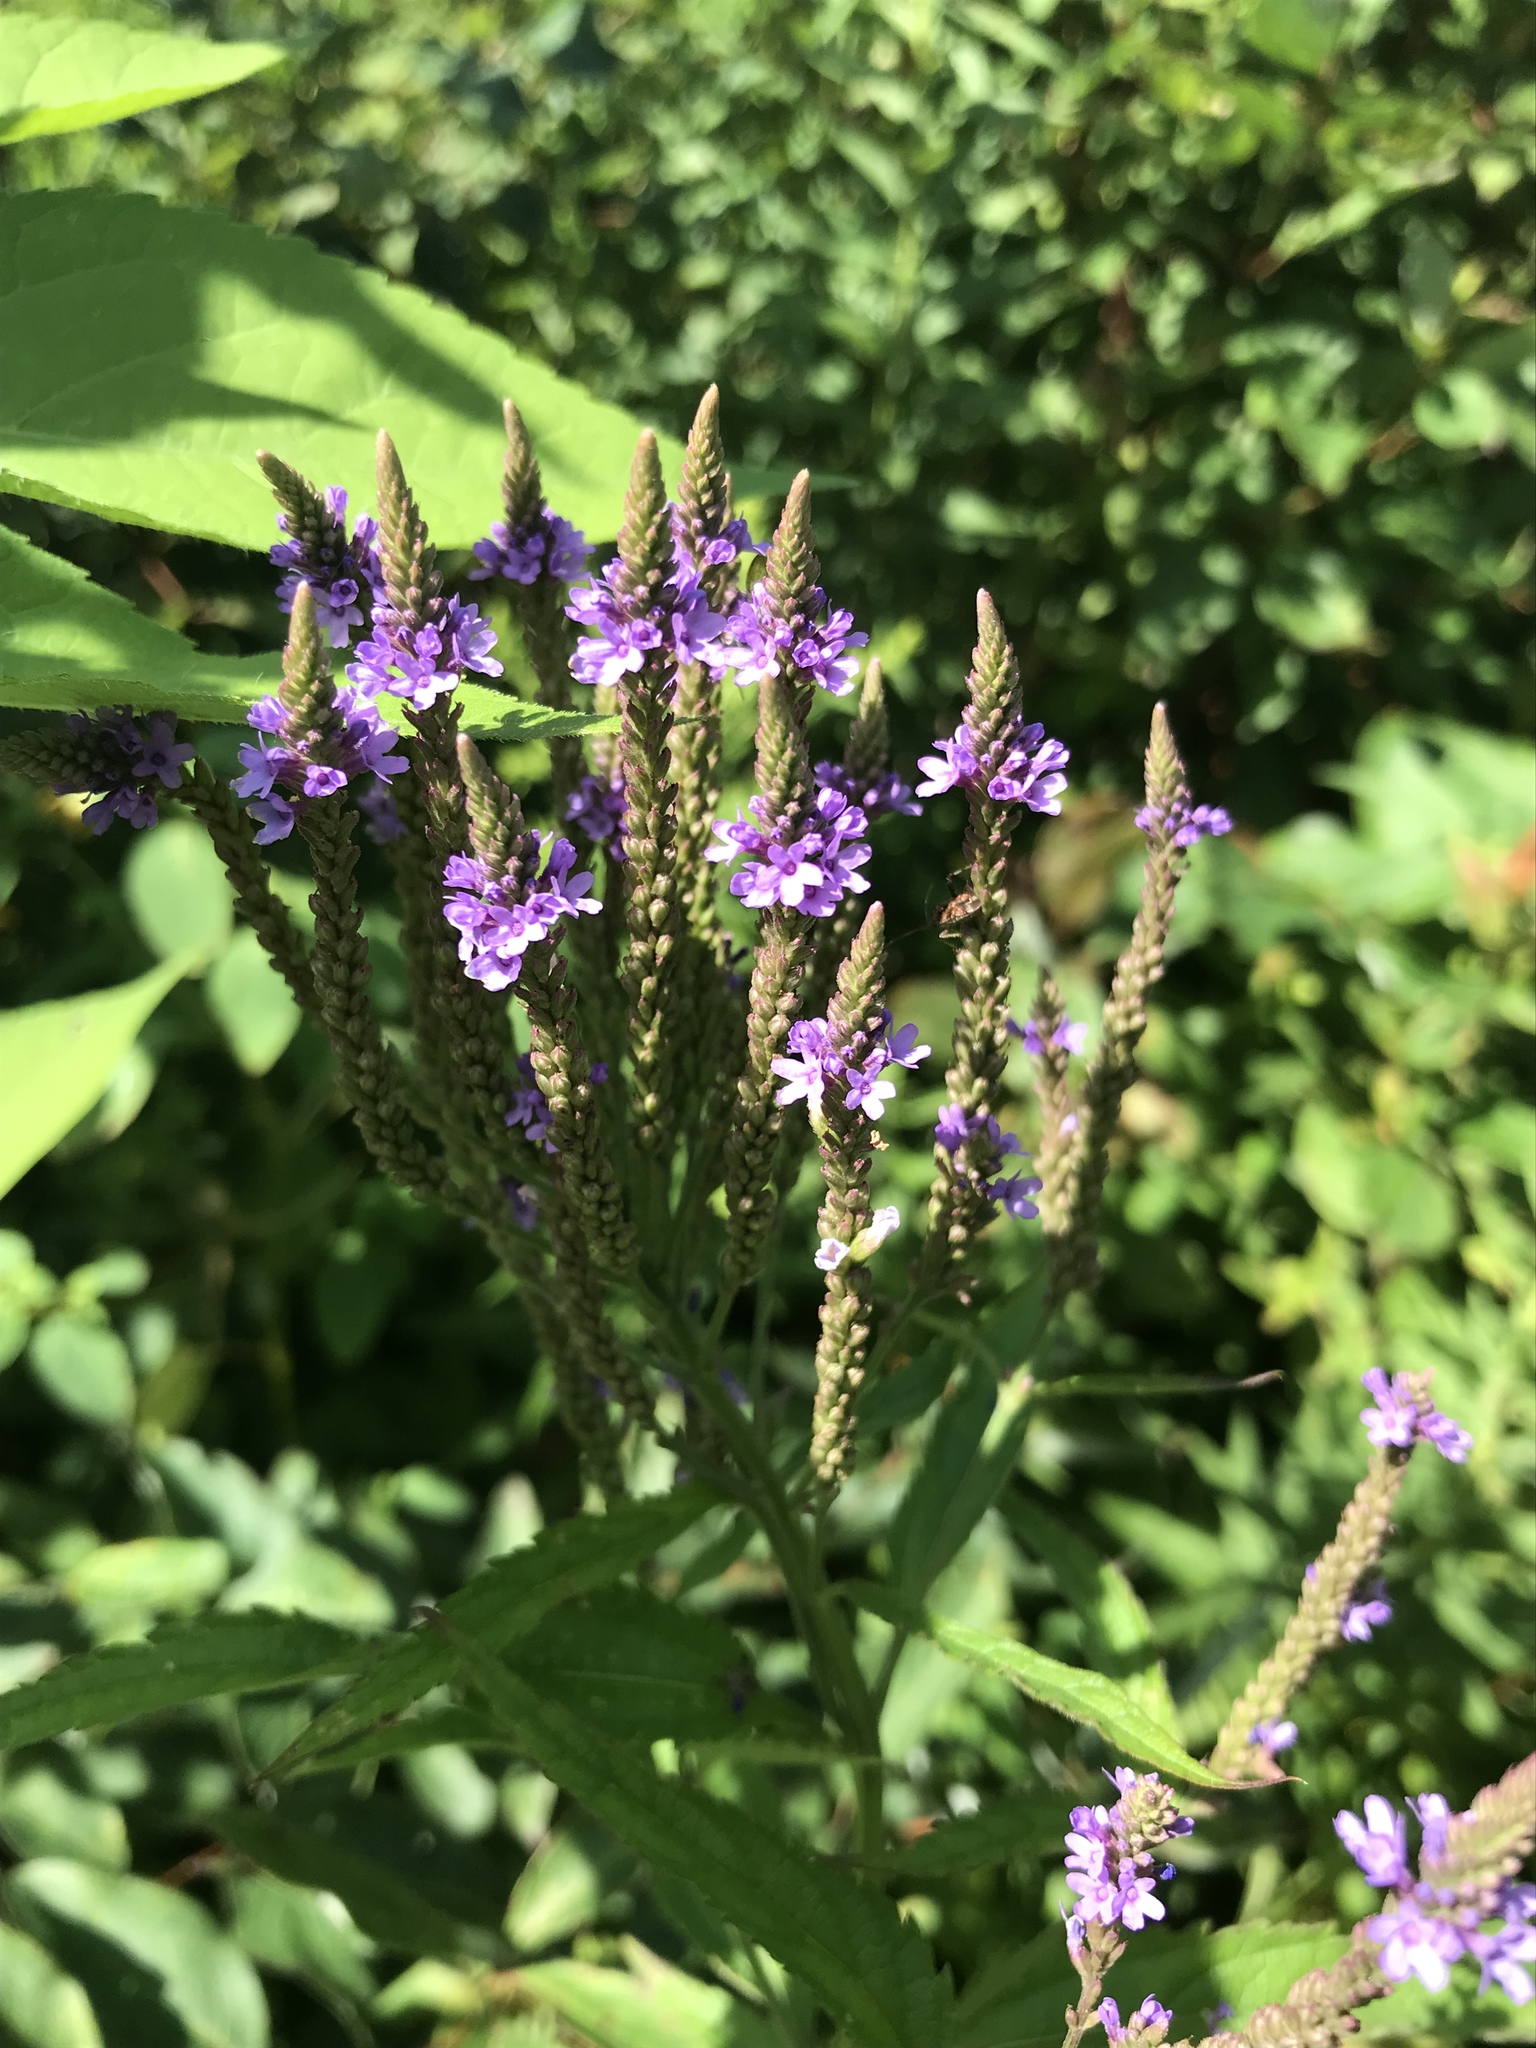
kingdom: Plantae
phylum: Tracheophyta
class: Magnoliopsida
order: Lamiales
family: Verbenaceae
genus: Verbena
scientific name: Verbena hastata
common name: American blue vervain
